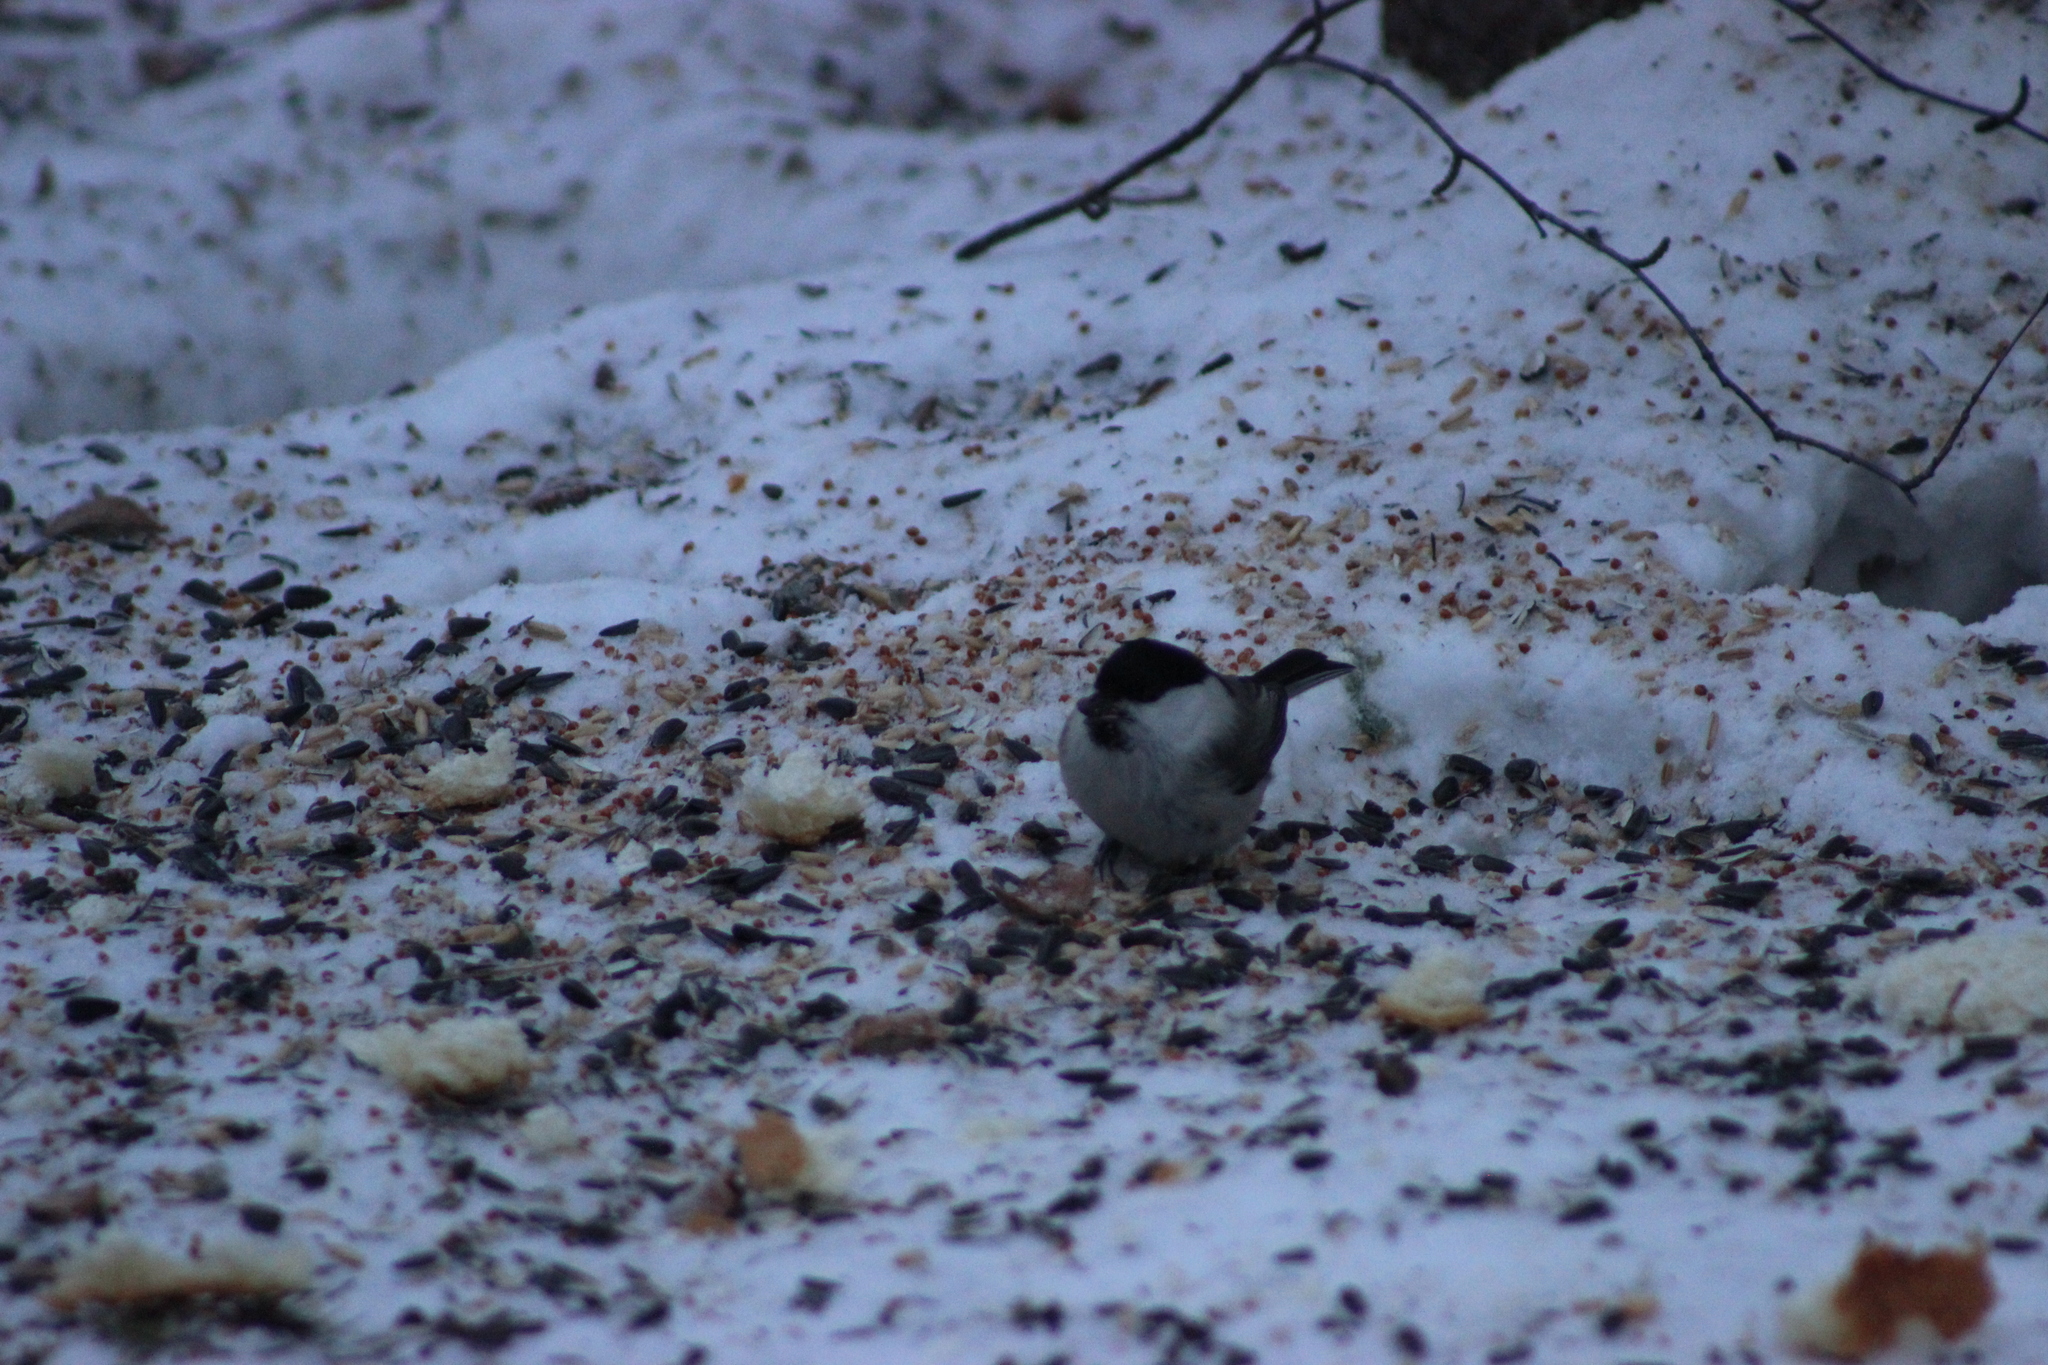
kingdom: Animalia
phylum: Chordata
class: Aves
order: Passeriformes
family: Paridae
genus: Poecile
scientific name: Poecile montanus
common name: Willow tit
